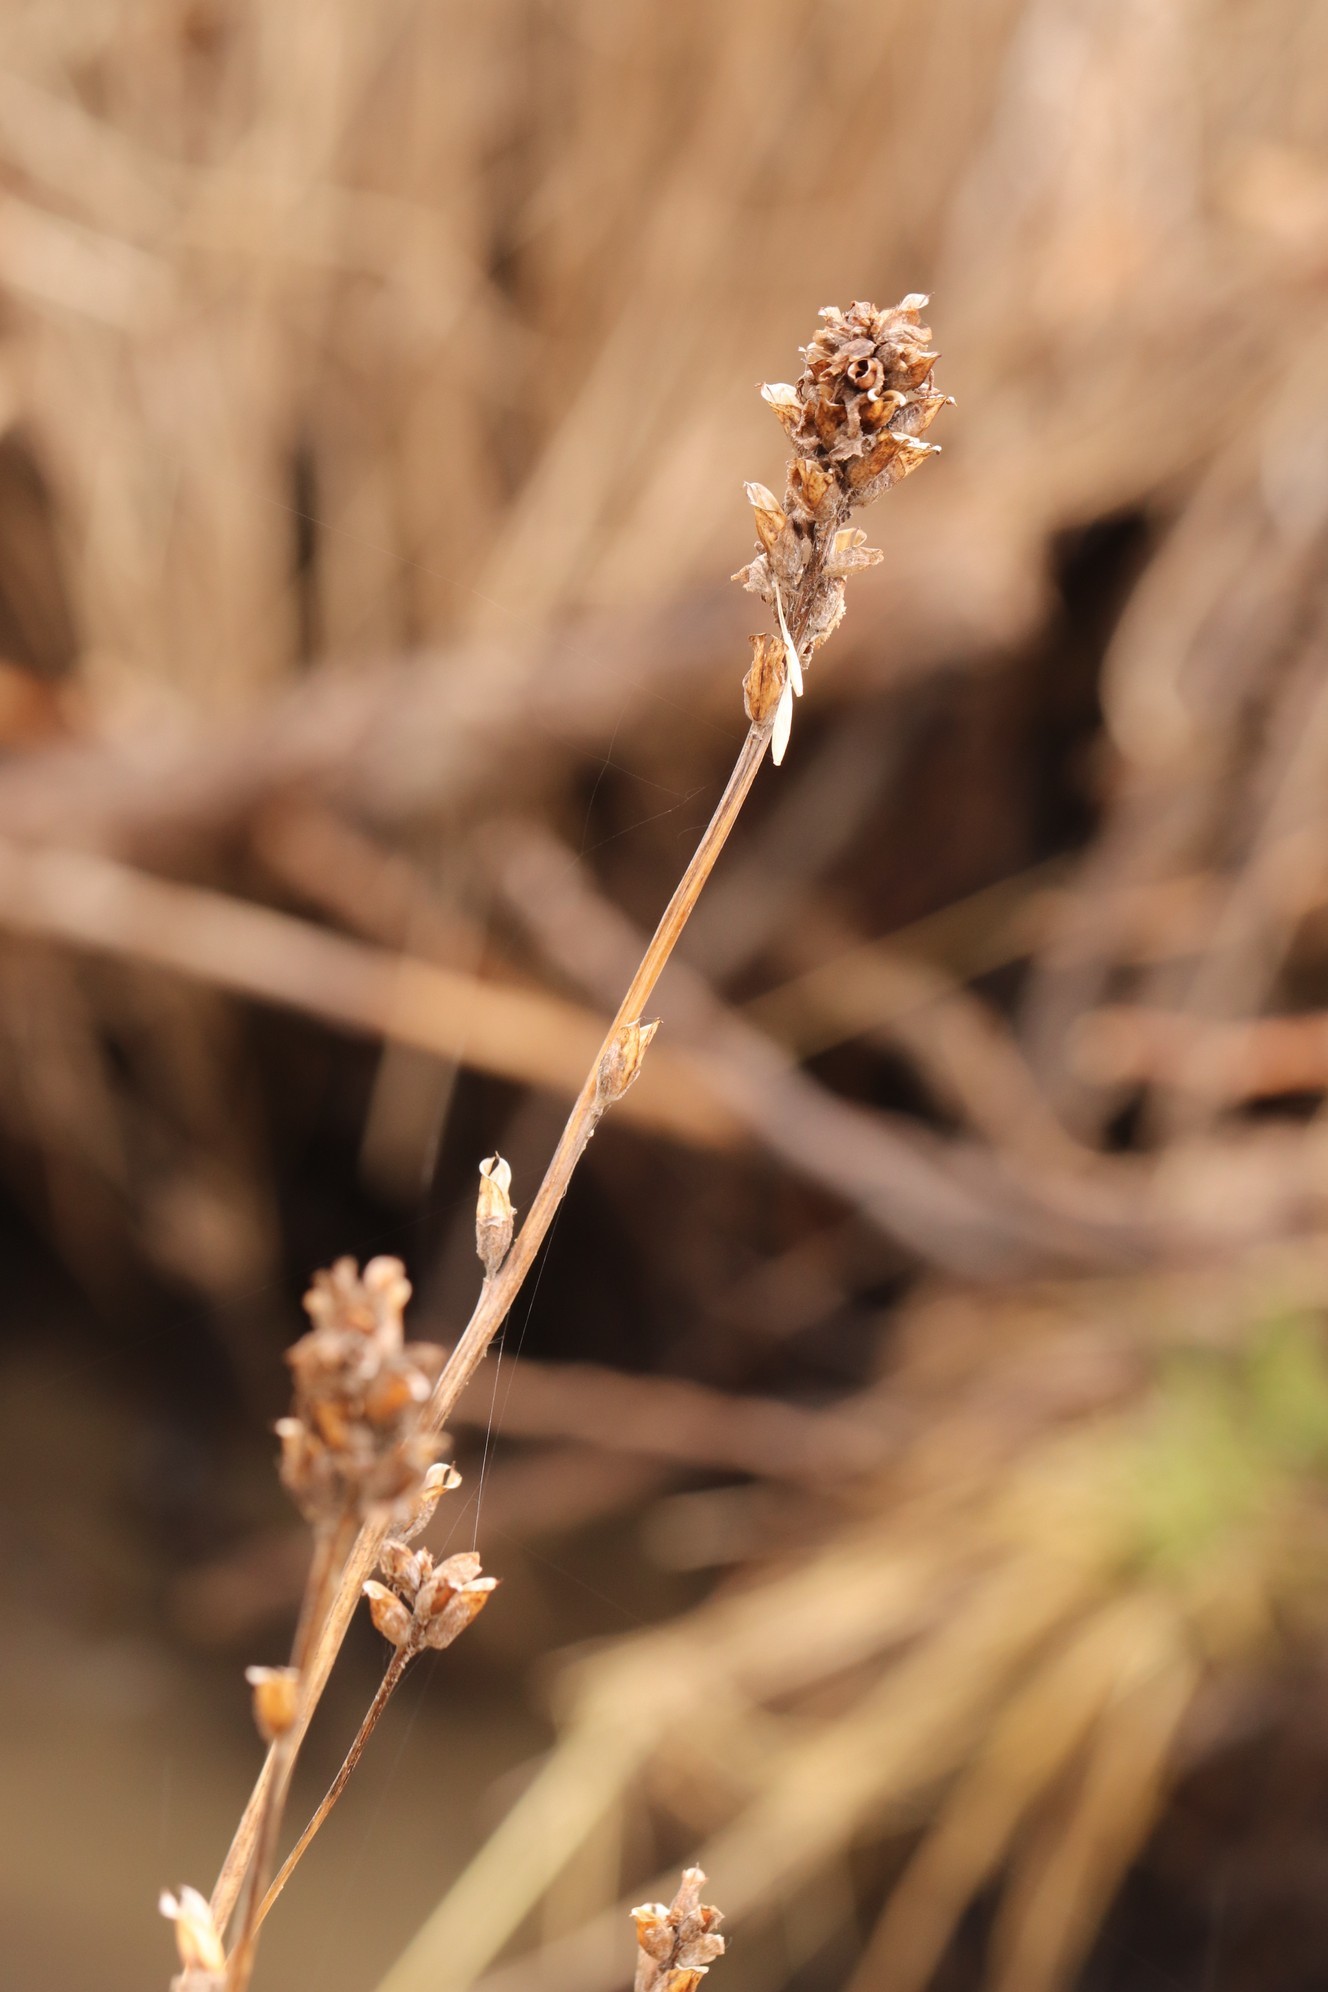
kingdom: Plantae
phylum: Tracheophyta
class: Magnoliopsida
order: Lamiales
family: Orobanchaceae
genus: Pedicularis
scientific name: Pedicularis resupinata
